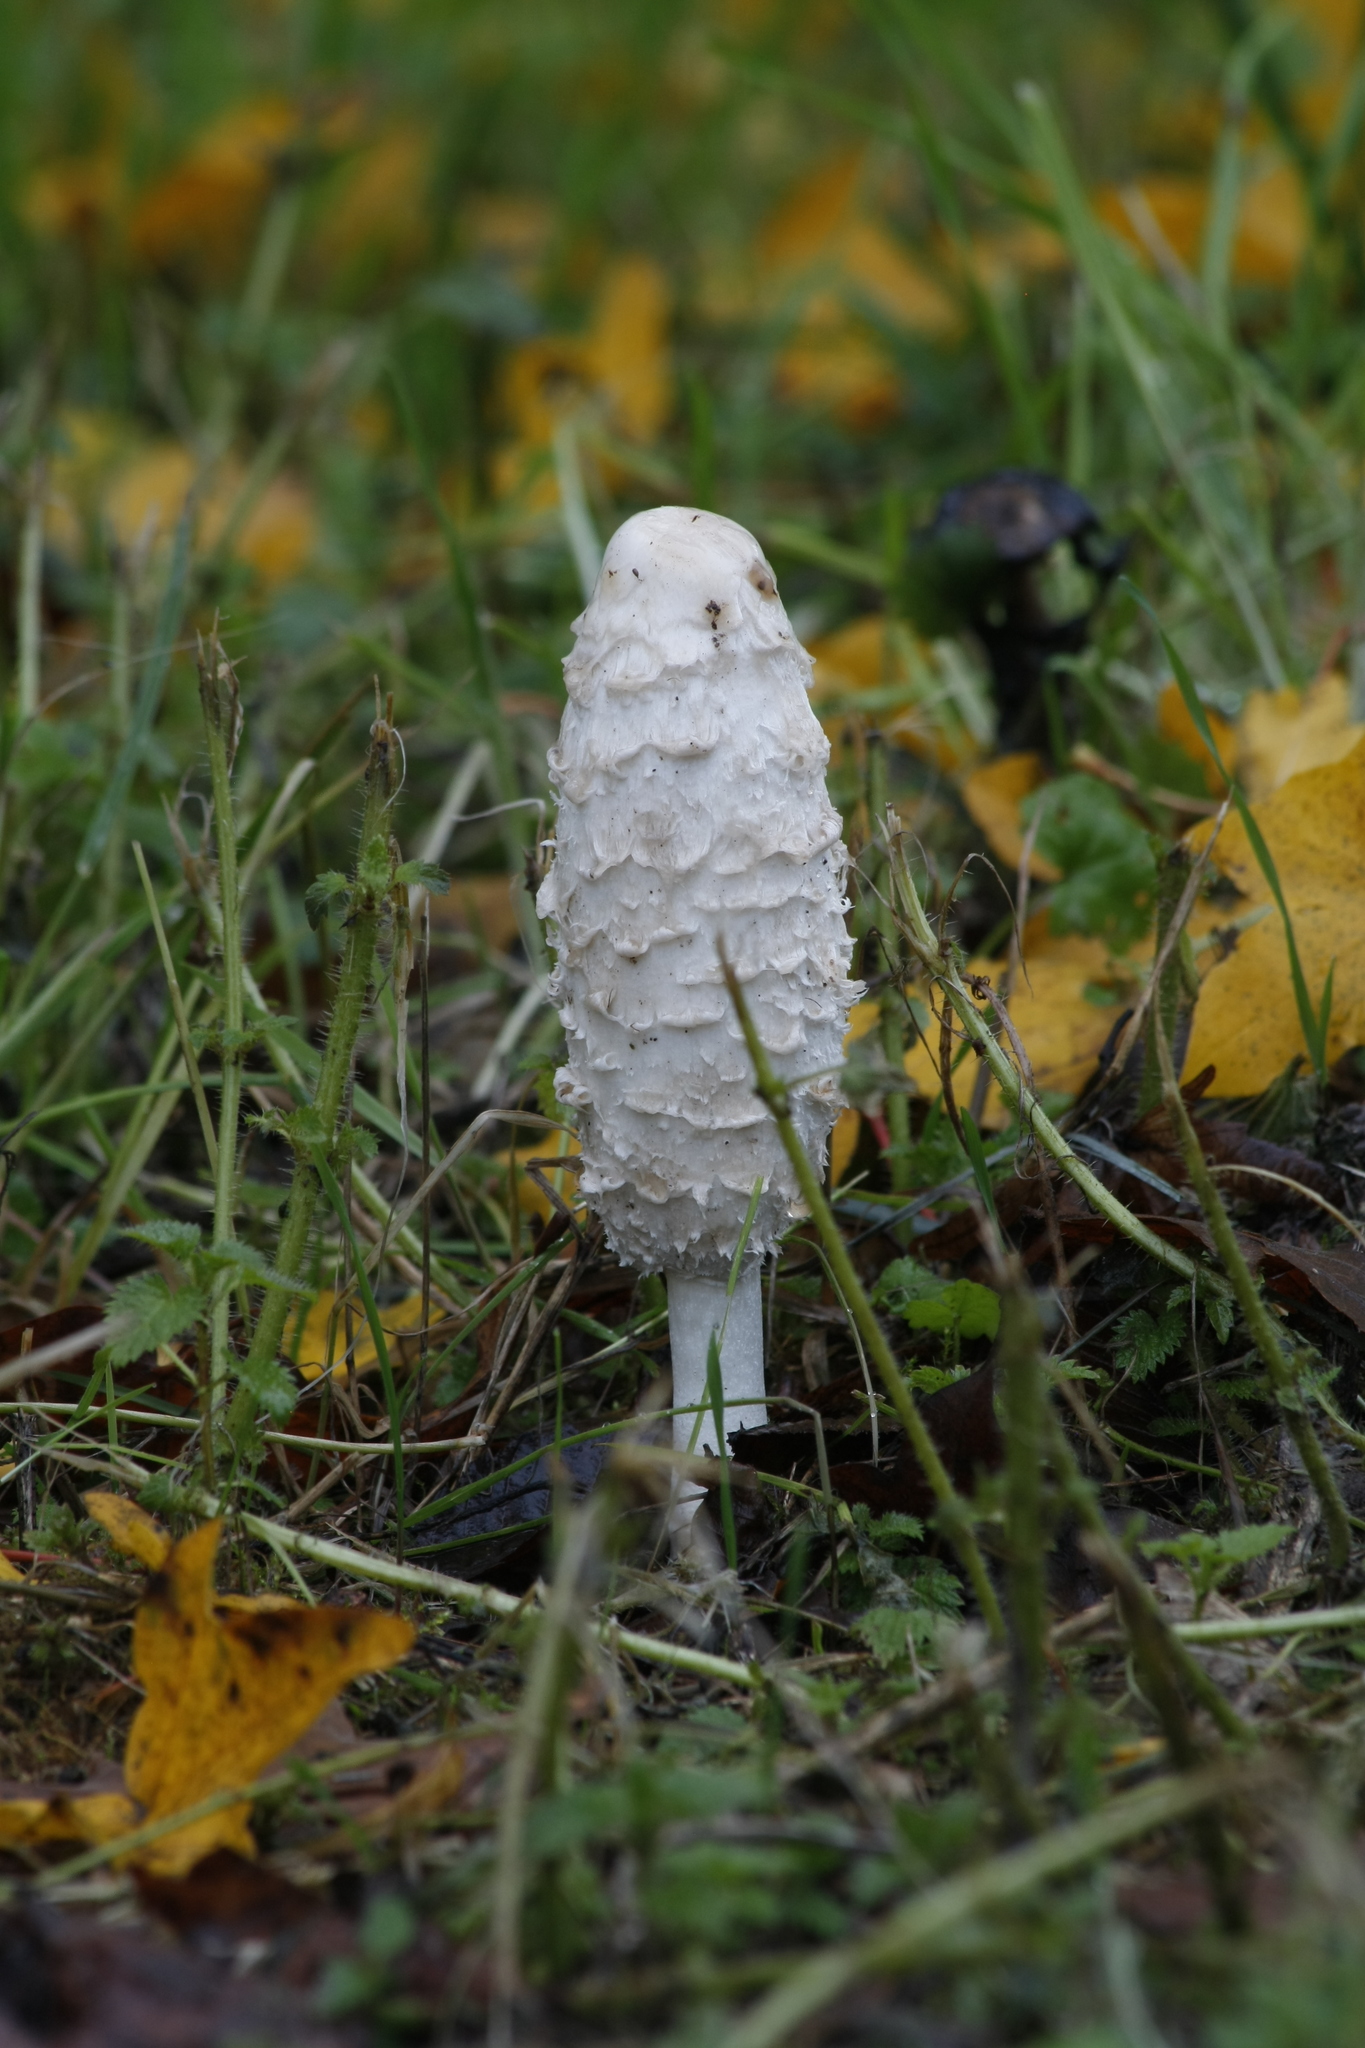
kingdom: Fungi
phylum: Basidiomycota
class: Agaricomycetes
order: Agaricales
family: Agaricaceae
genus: Coprinus
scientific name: Coprinus comatus
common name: Lawyer's wig
